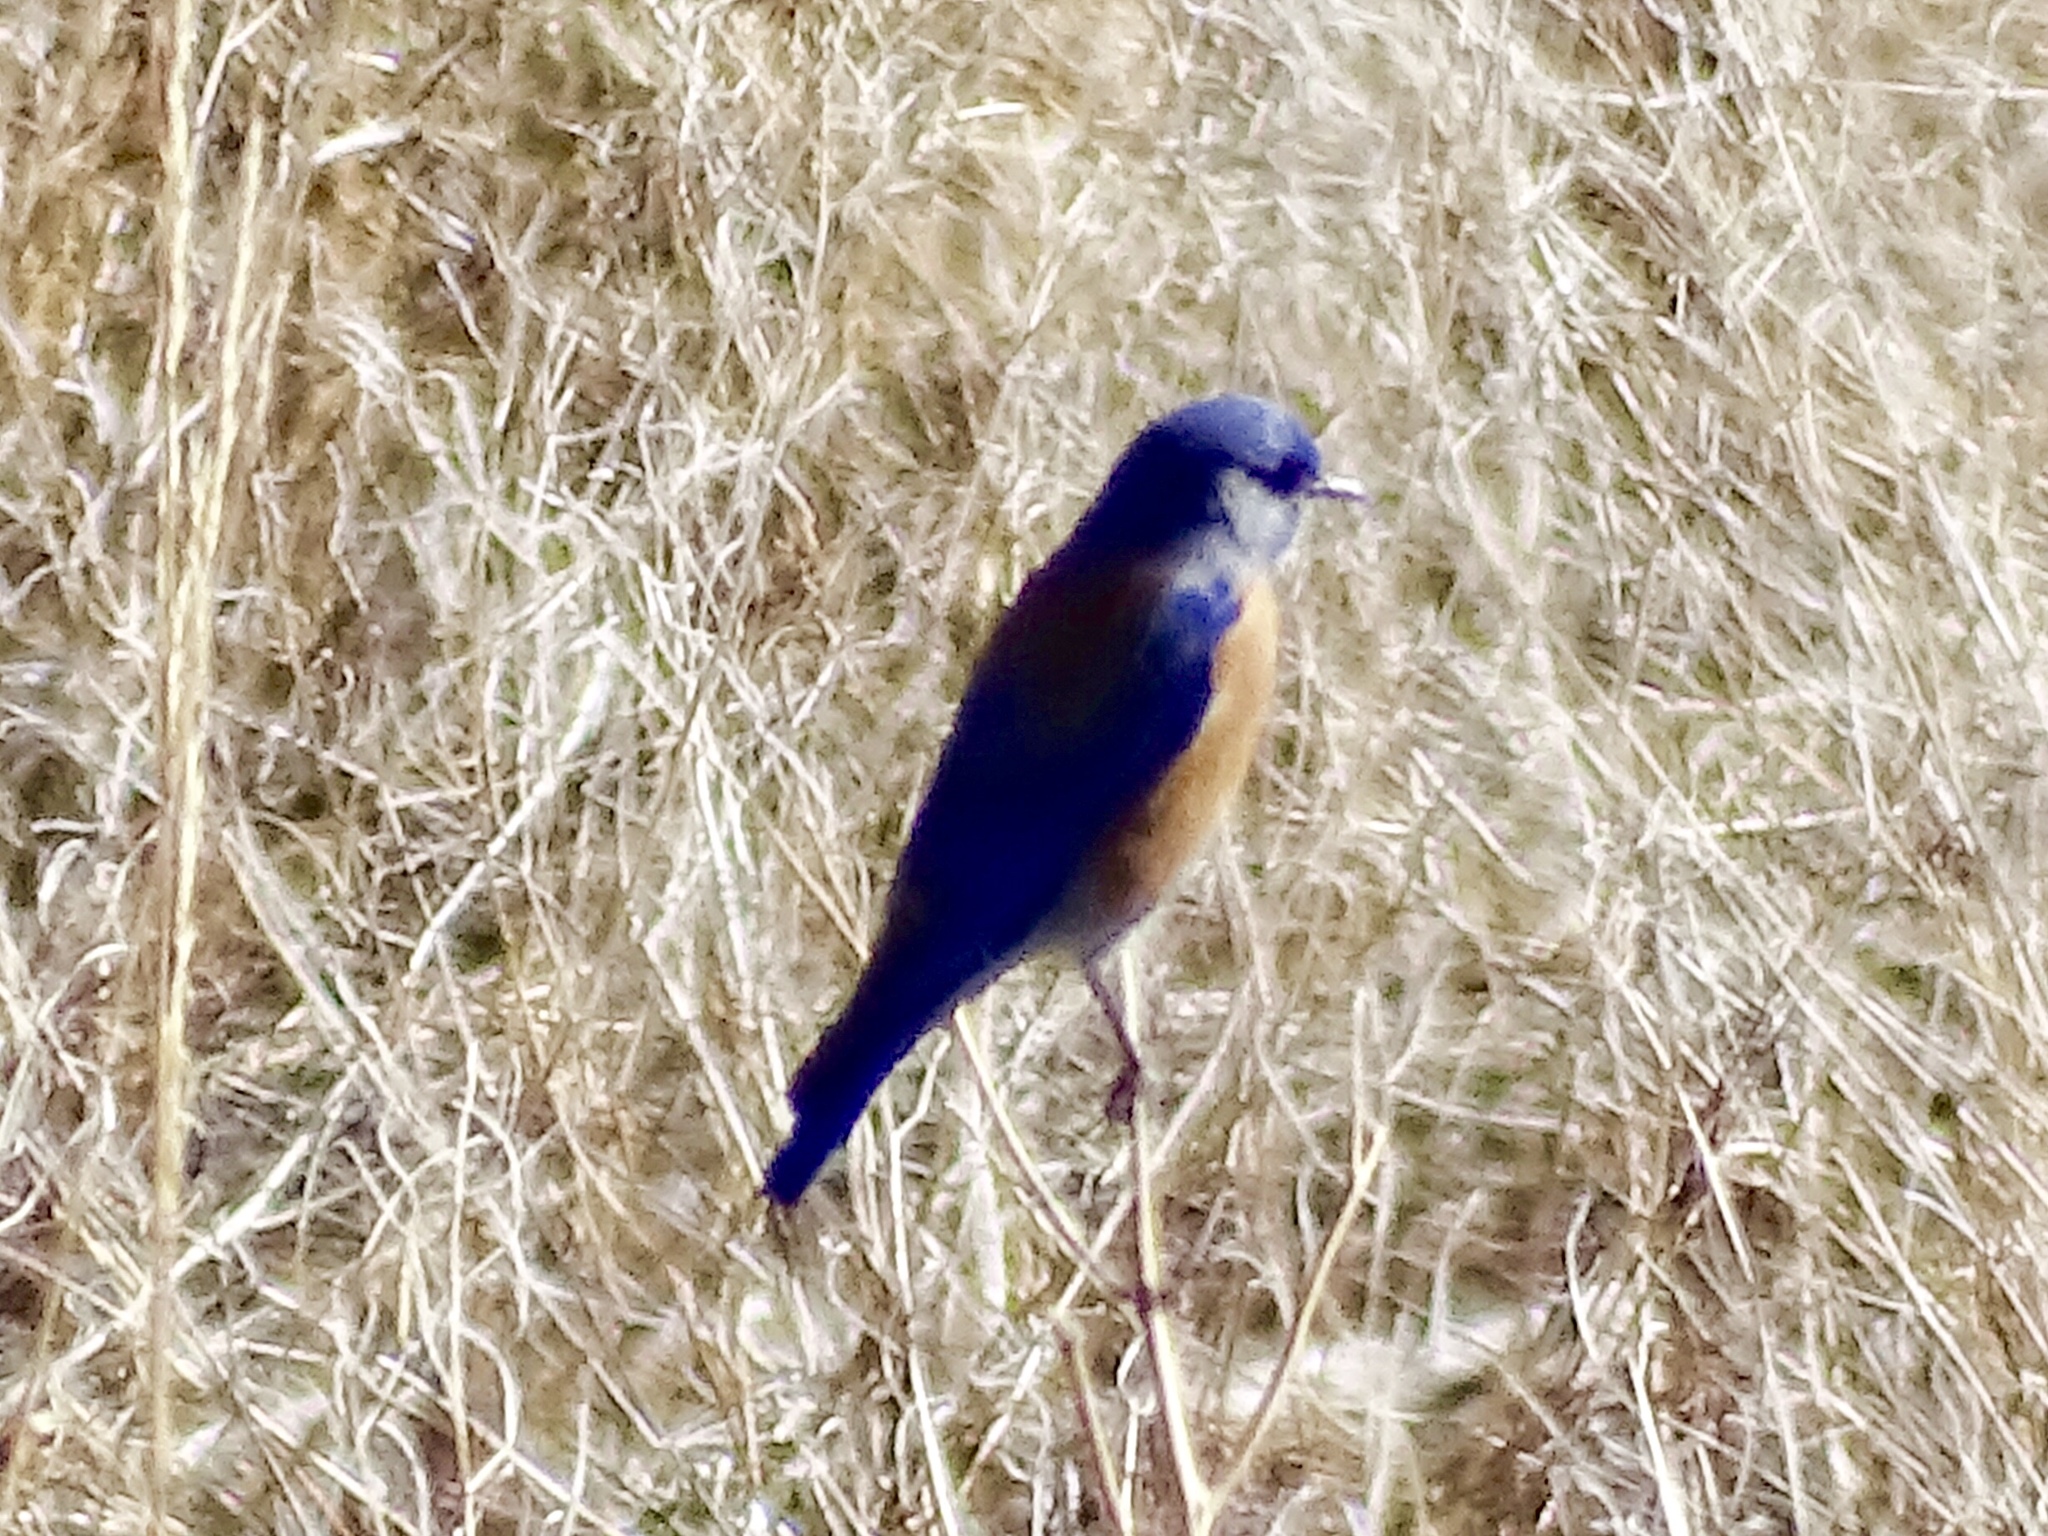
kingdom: Animalia
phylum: Chordata
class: Aves
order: Passeriformes
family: Turdidae
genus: Sialia
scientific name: Sialia mexicana
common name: Western bluebird
